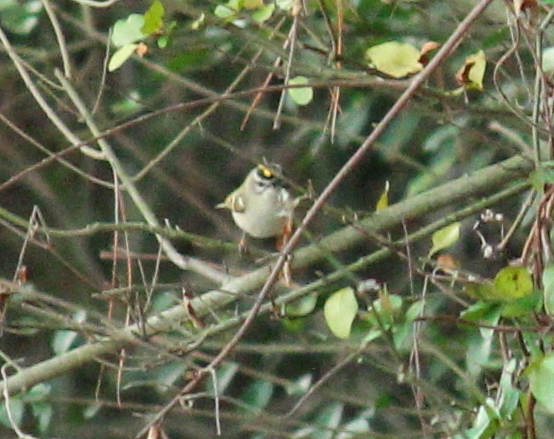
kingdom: Animalia
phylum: Chordata
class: Aves
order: Passeriformes
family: Regulidae
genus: Regulus
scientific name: Regulus satrapa
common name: Golden-crowned kinglet
